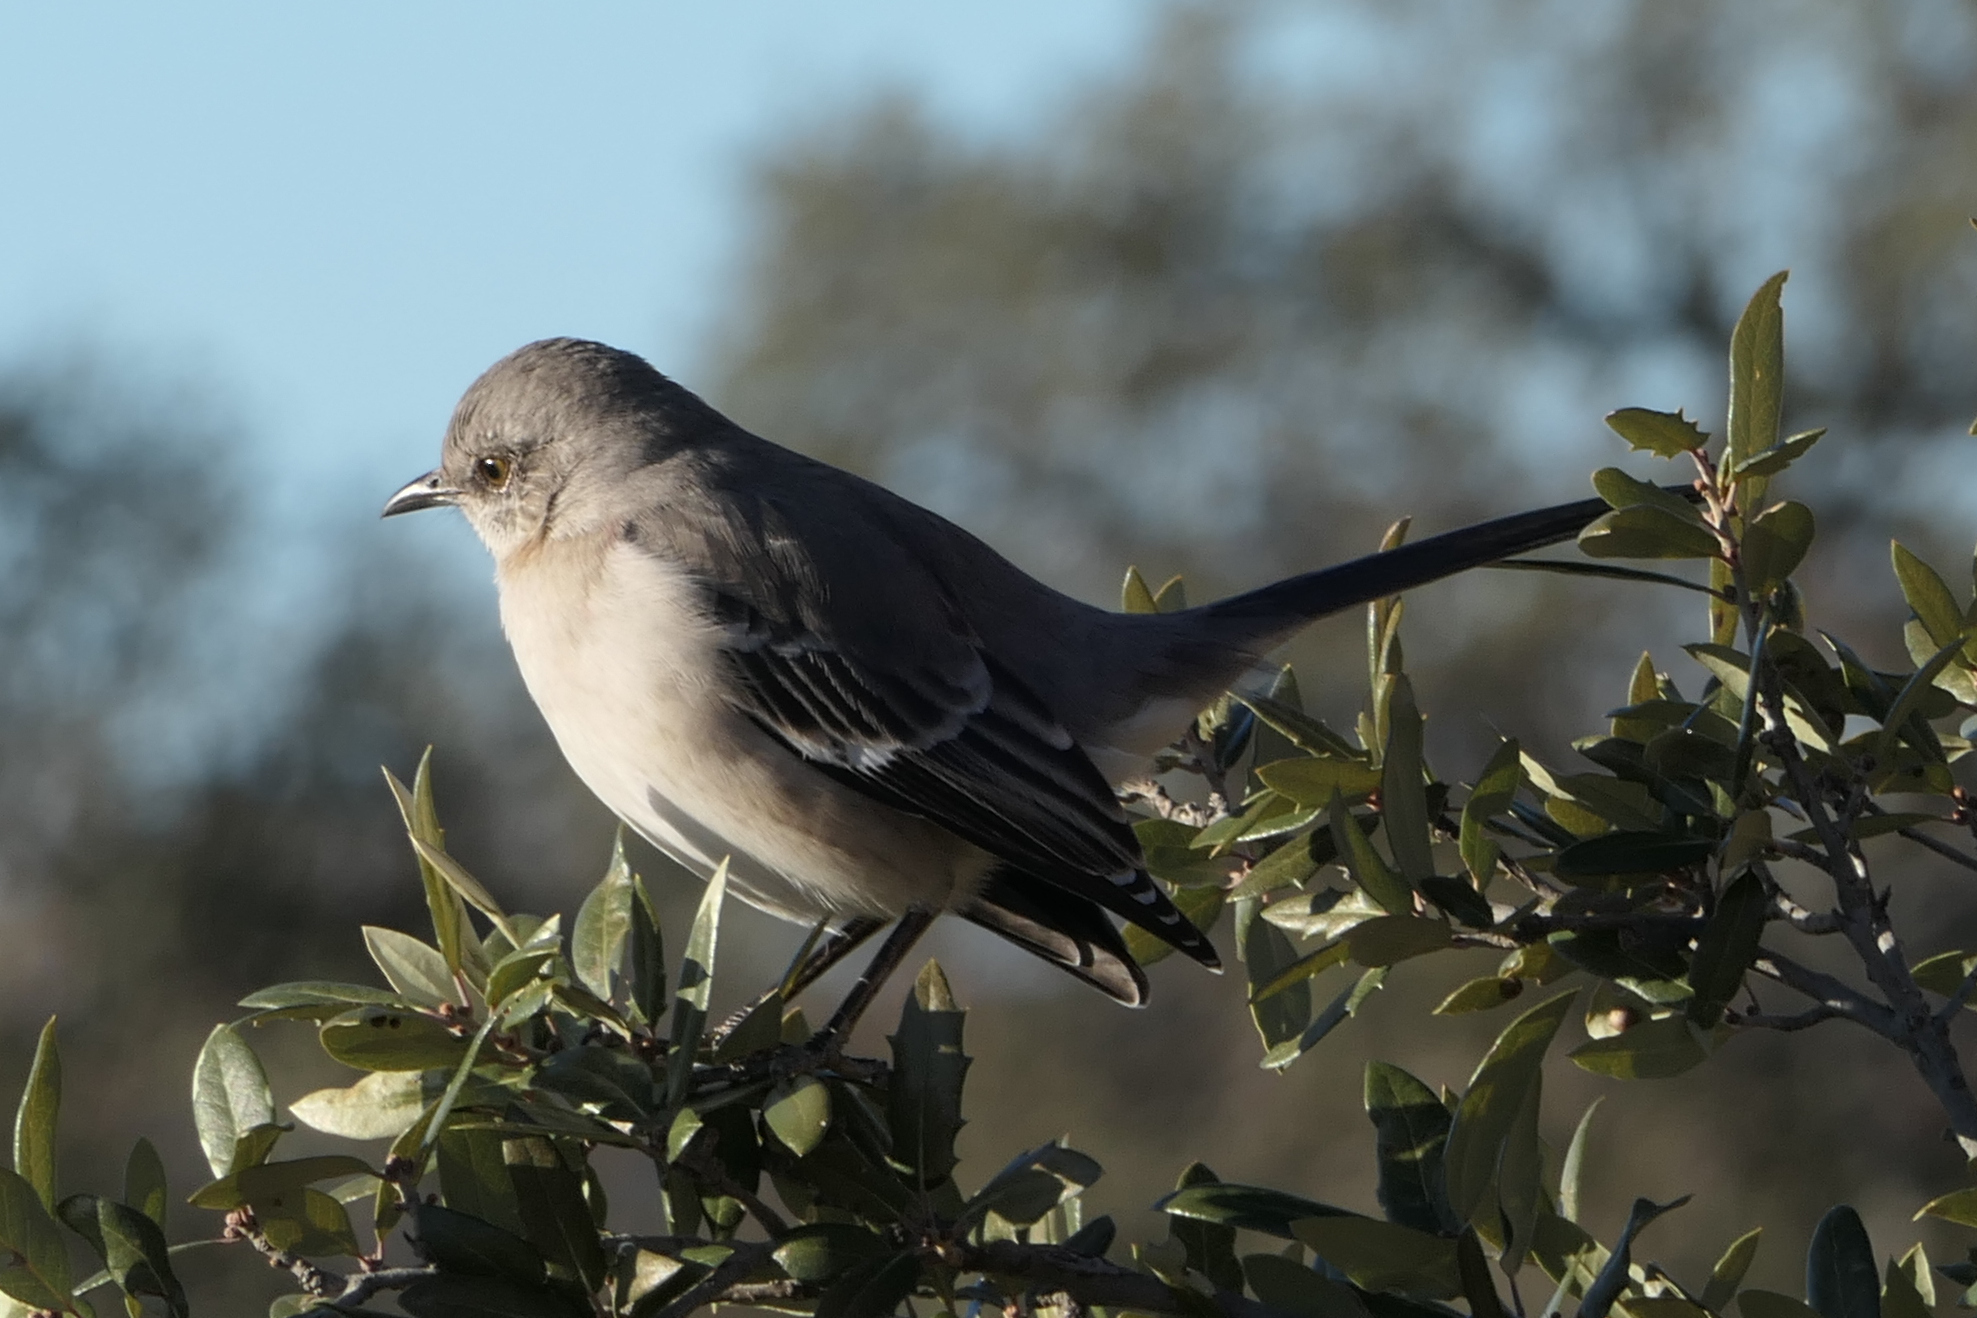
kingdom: Animalia
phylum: Chordata
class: Aves
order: Passeriformes
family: Mimidae
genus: Mimus
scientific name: Mimus polyglottos
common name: Northern mockingbird
